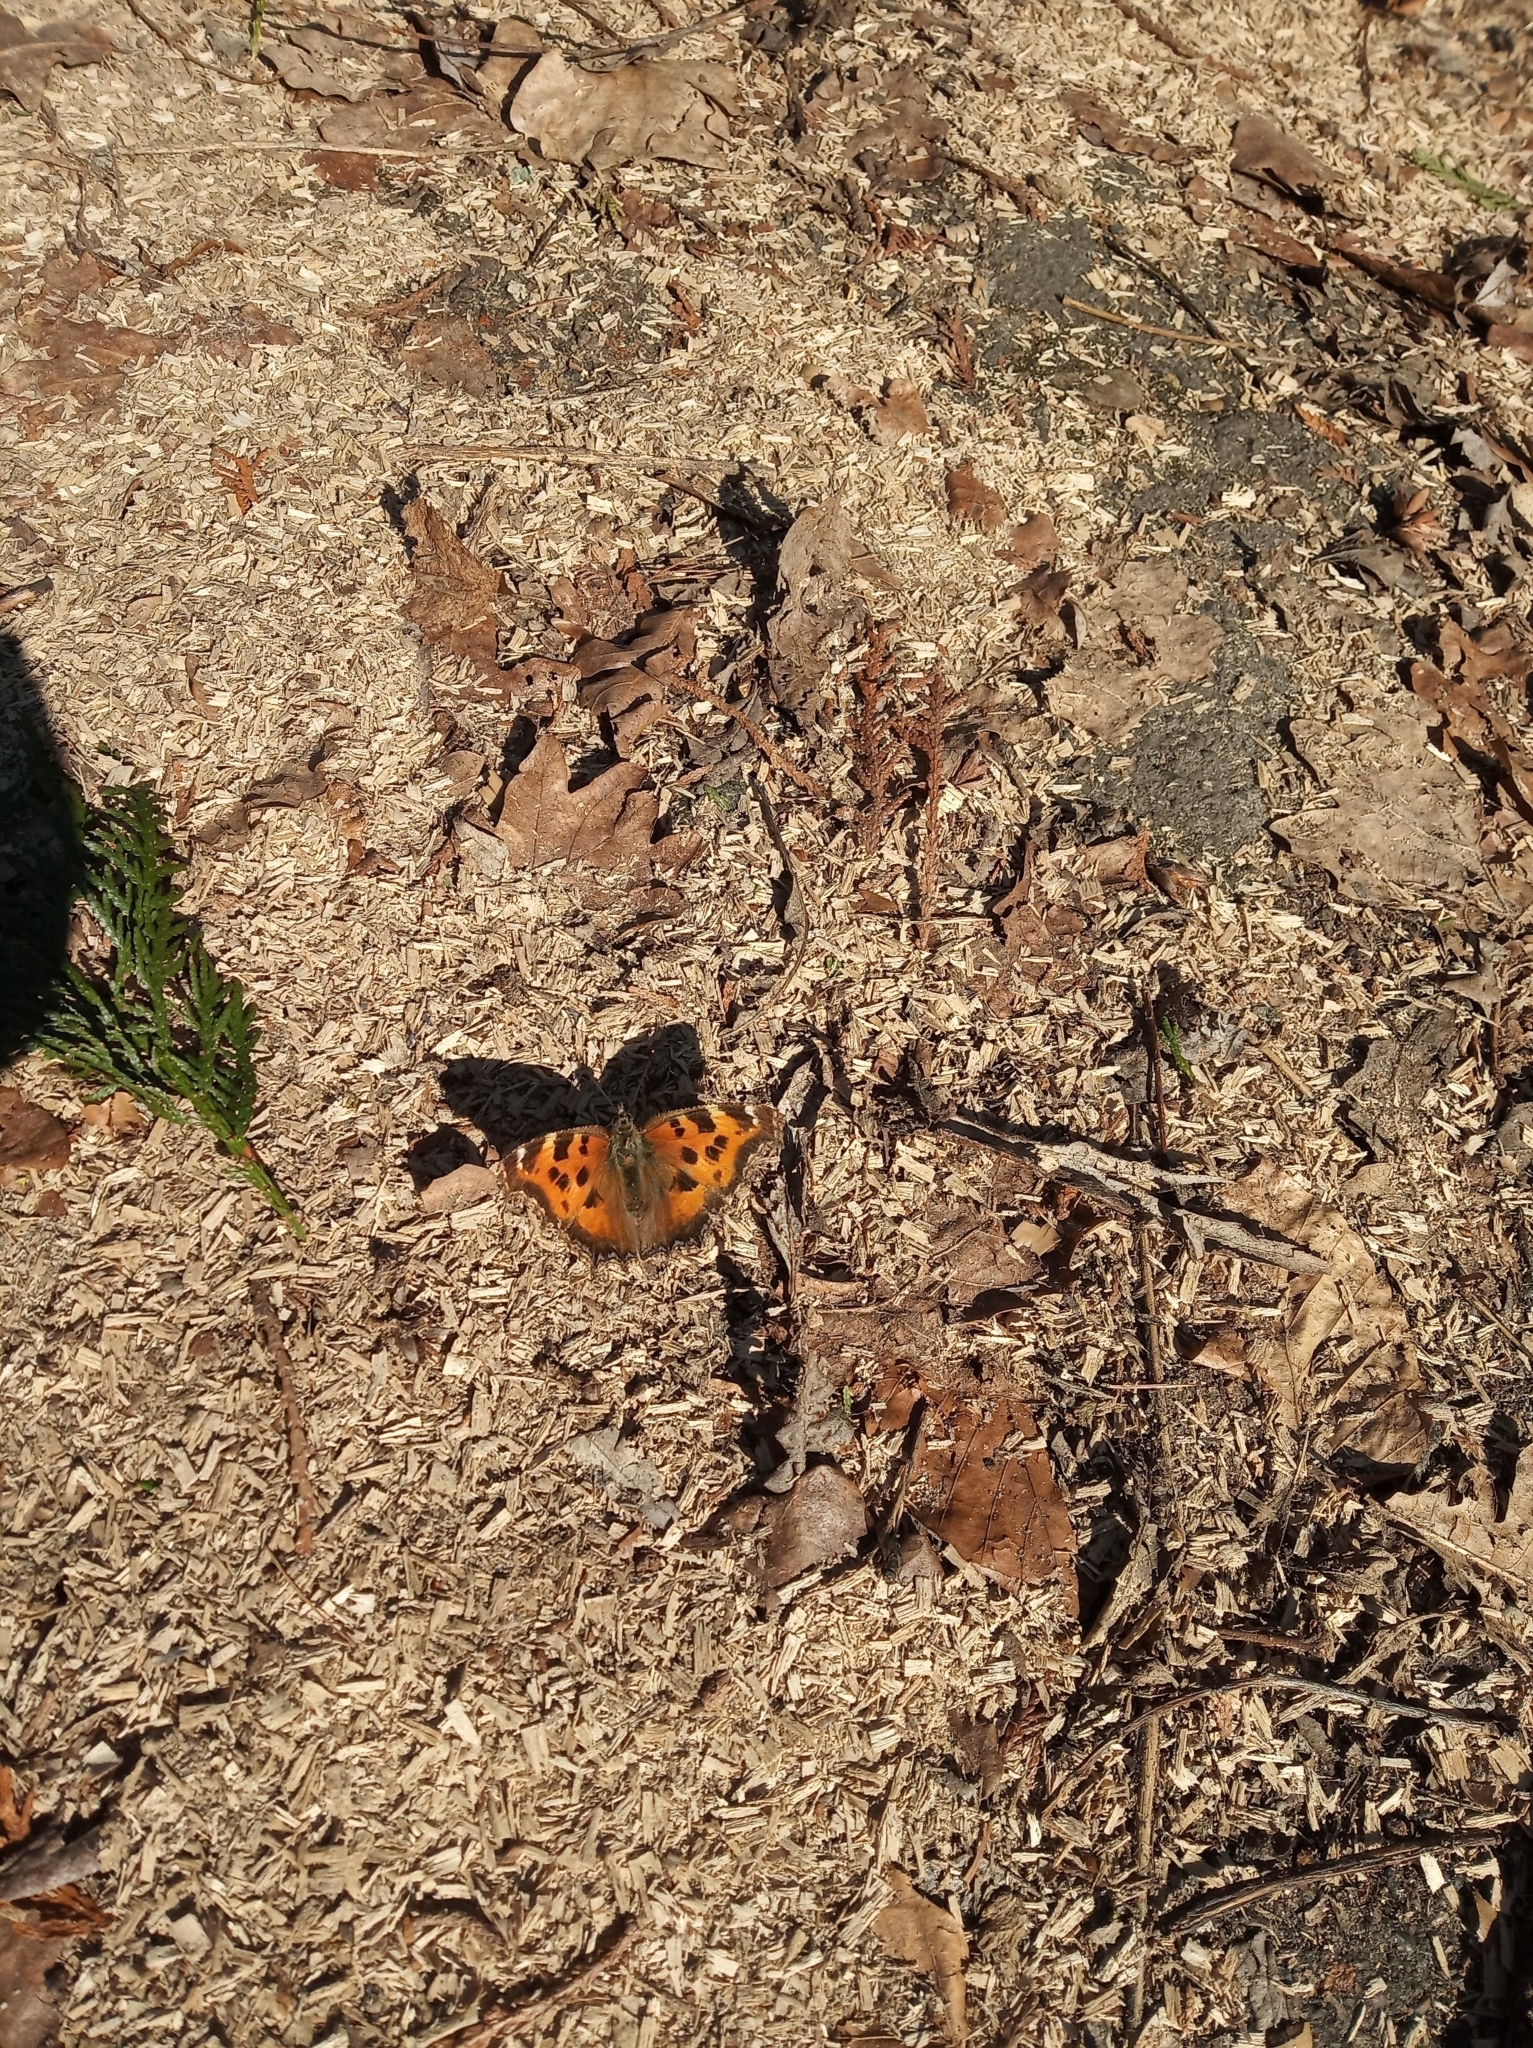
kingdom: Animalia
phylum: Arthropoda
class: Insecta
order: Lepidoptera
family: Nymphalidae
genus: Nymphalis
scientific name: Nymphalis xanthomelas
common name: Scarce tortoiseshell
